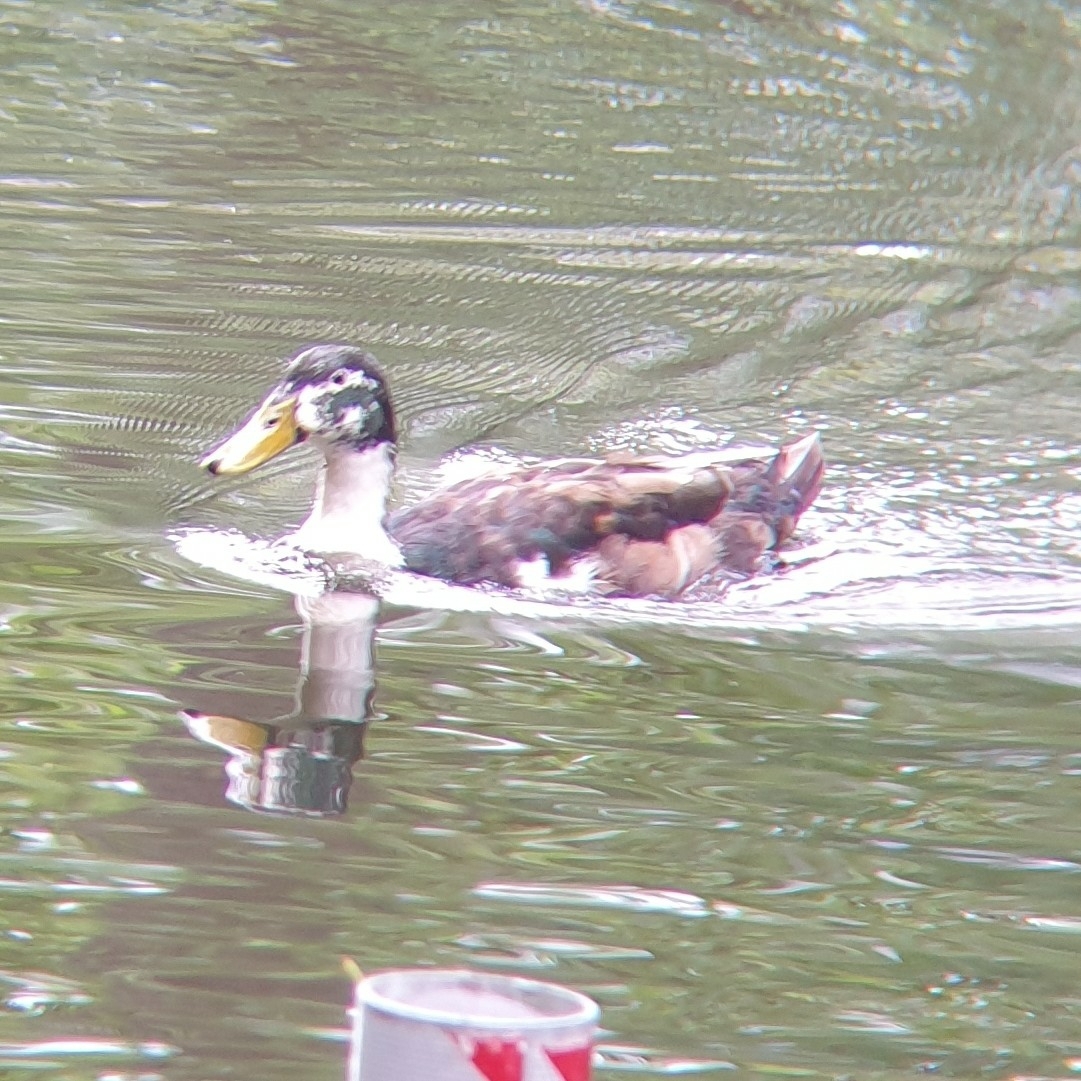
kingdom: Animalia
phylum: Chordata
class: Aves
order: Anseriformes
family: Anatidae
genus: Anas
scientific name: Anas platyrhynchos
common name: Mallard
